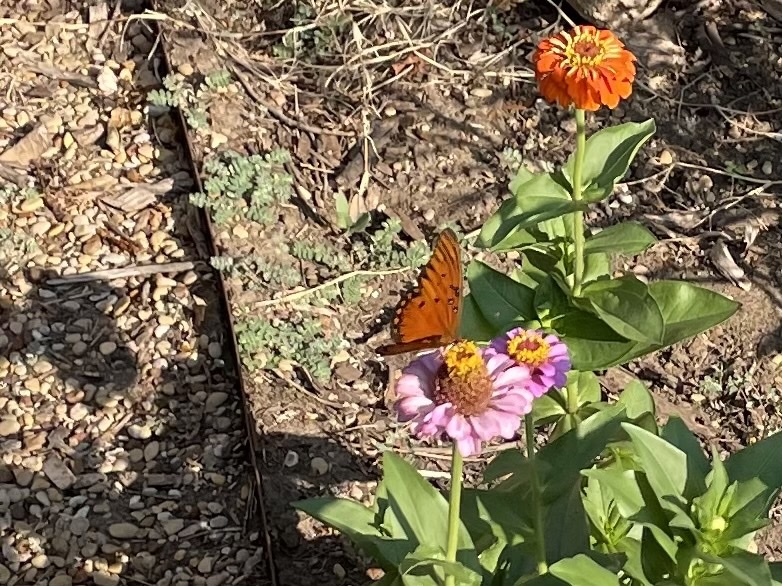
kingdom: Animalia
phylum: Arthropoda
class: Insecta
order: Lepidoptera
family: Nymphalidae
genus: Dione
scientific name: Dione vanillae
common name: Gulf fritillary
